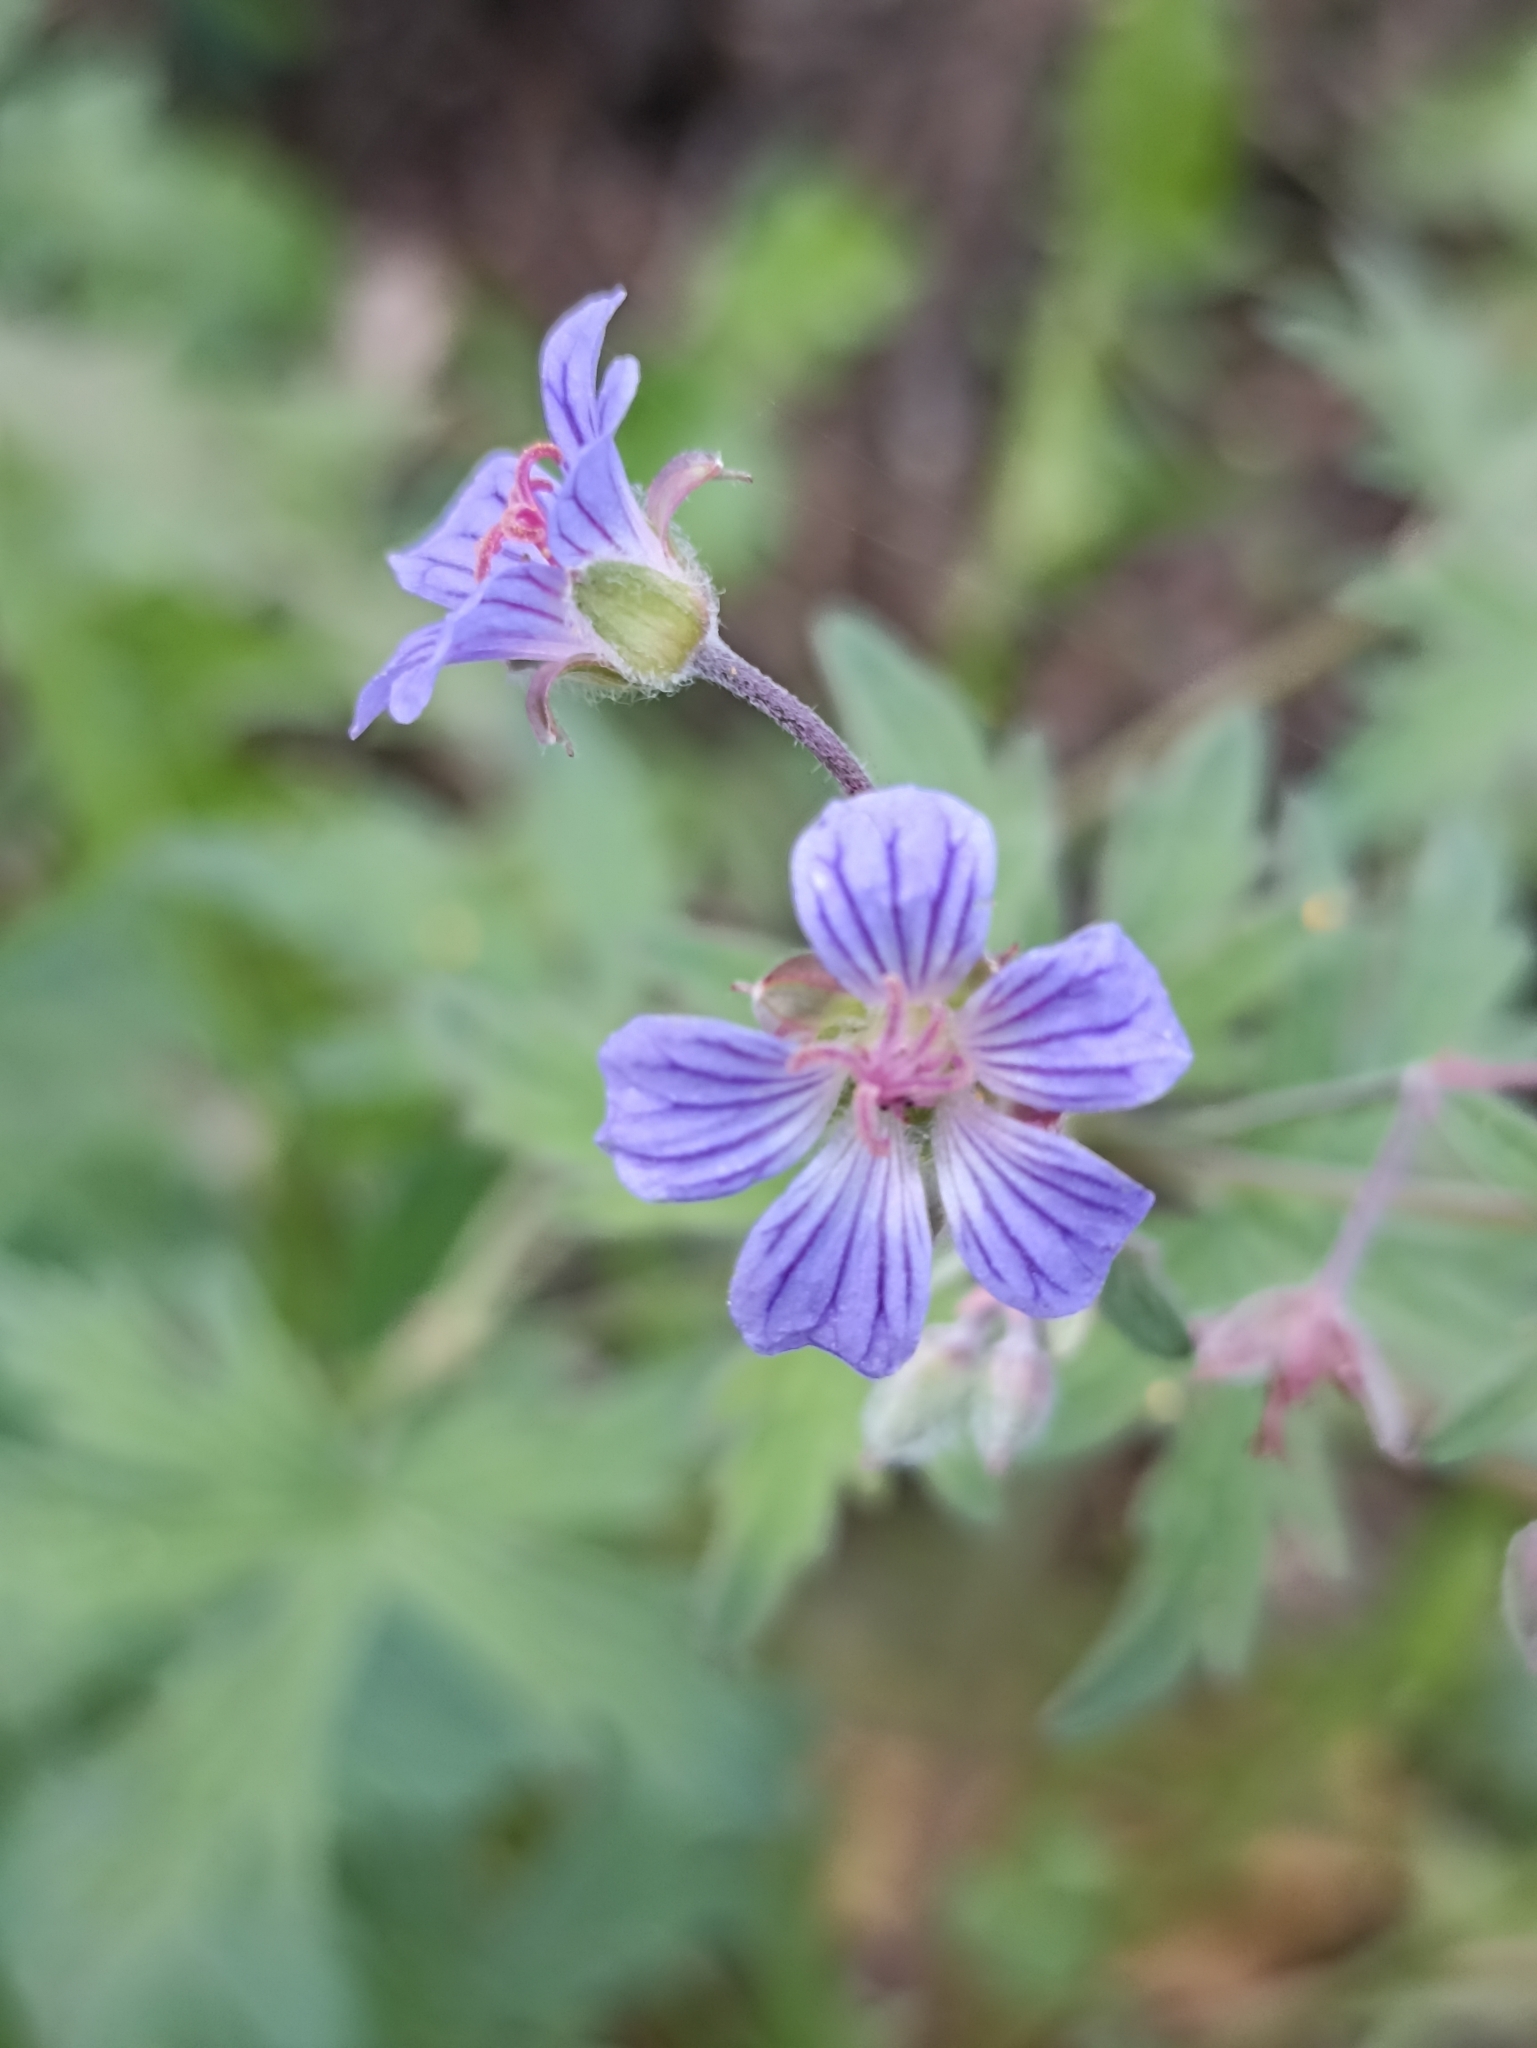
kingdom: Plantae
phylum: Tracheophyta
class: Magnoliopsida
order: Geraniales
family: Geraniaceae
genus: Geranium
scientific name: Geranium pseudosibiricum
